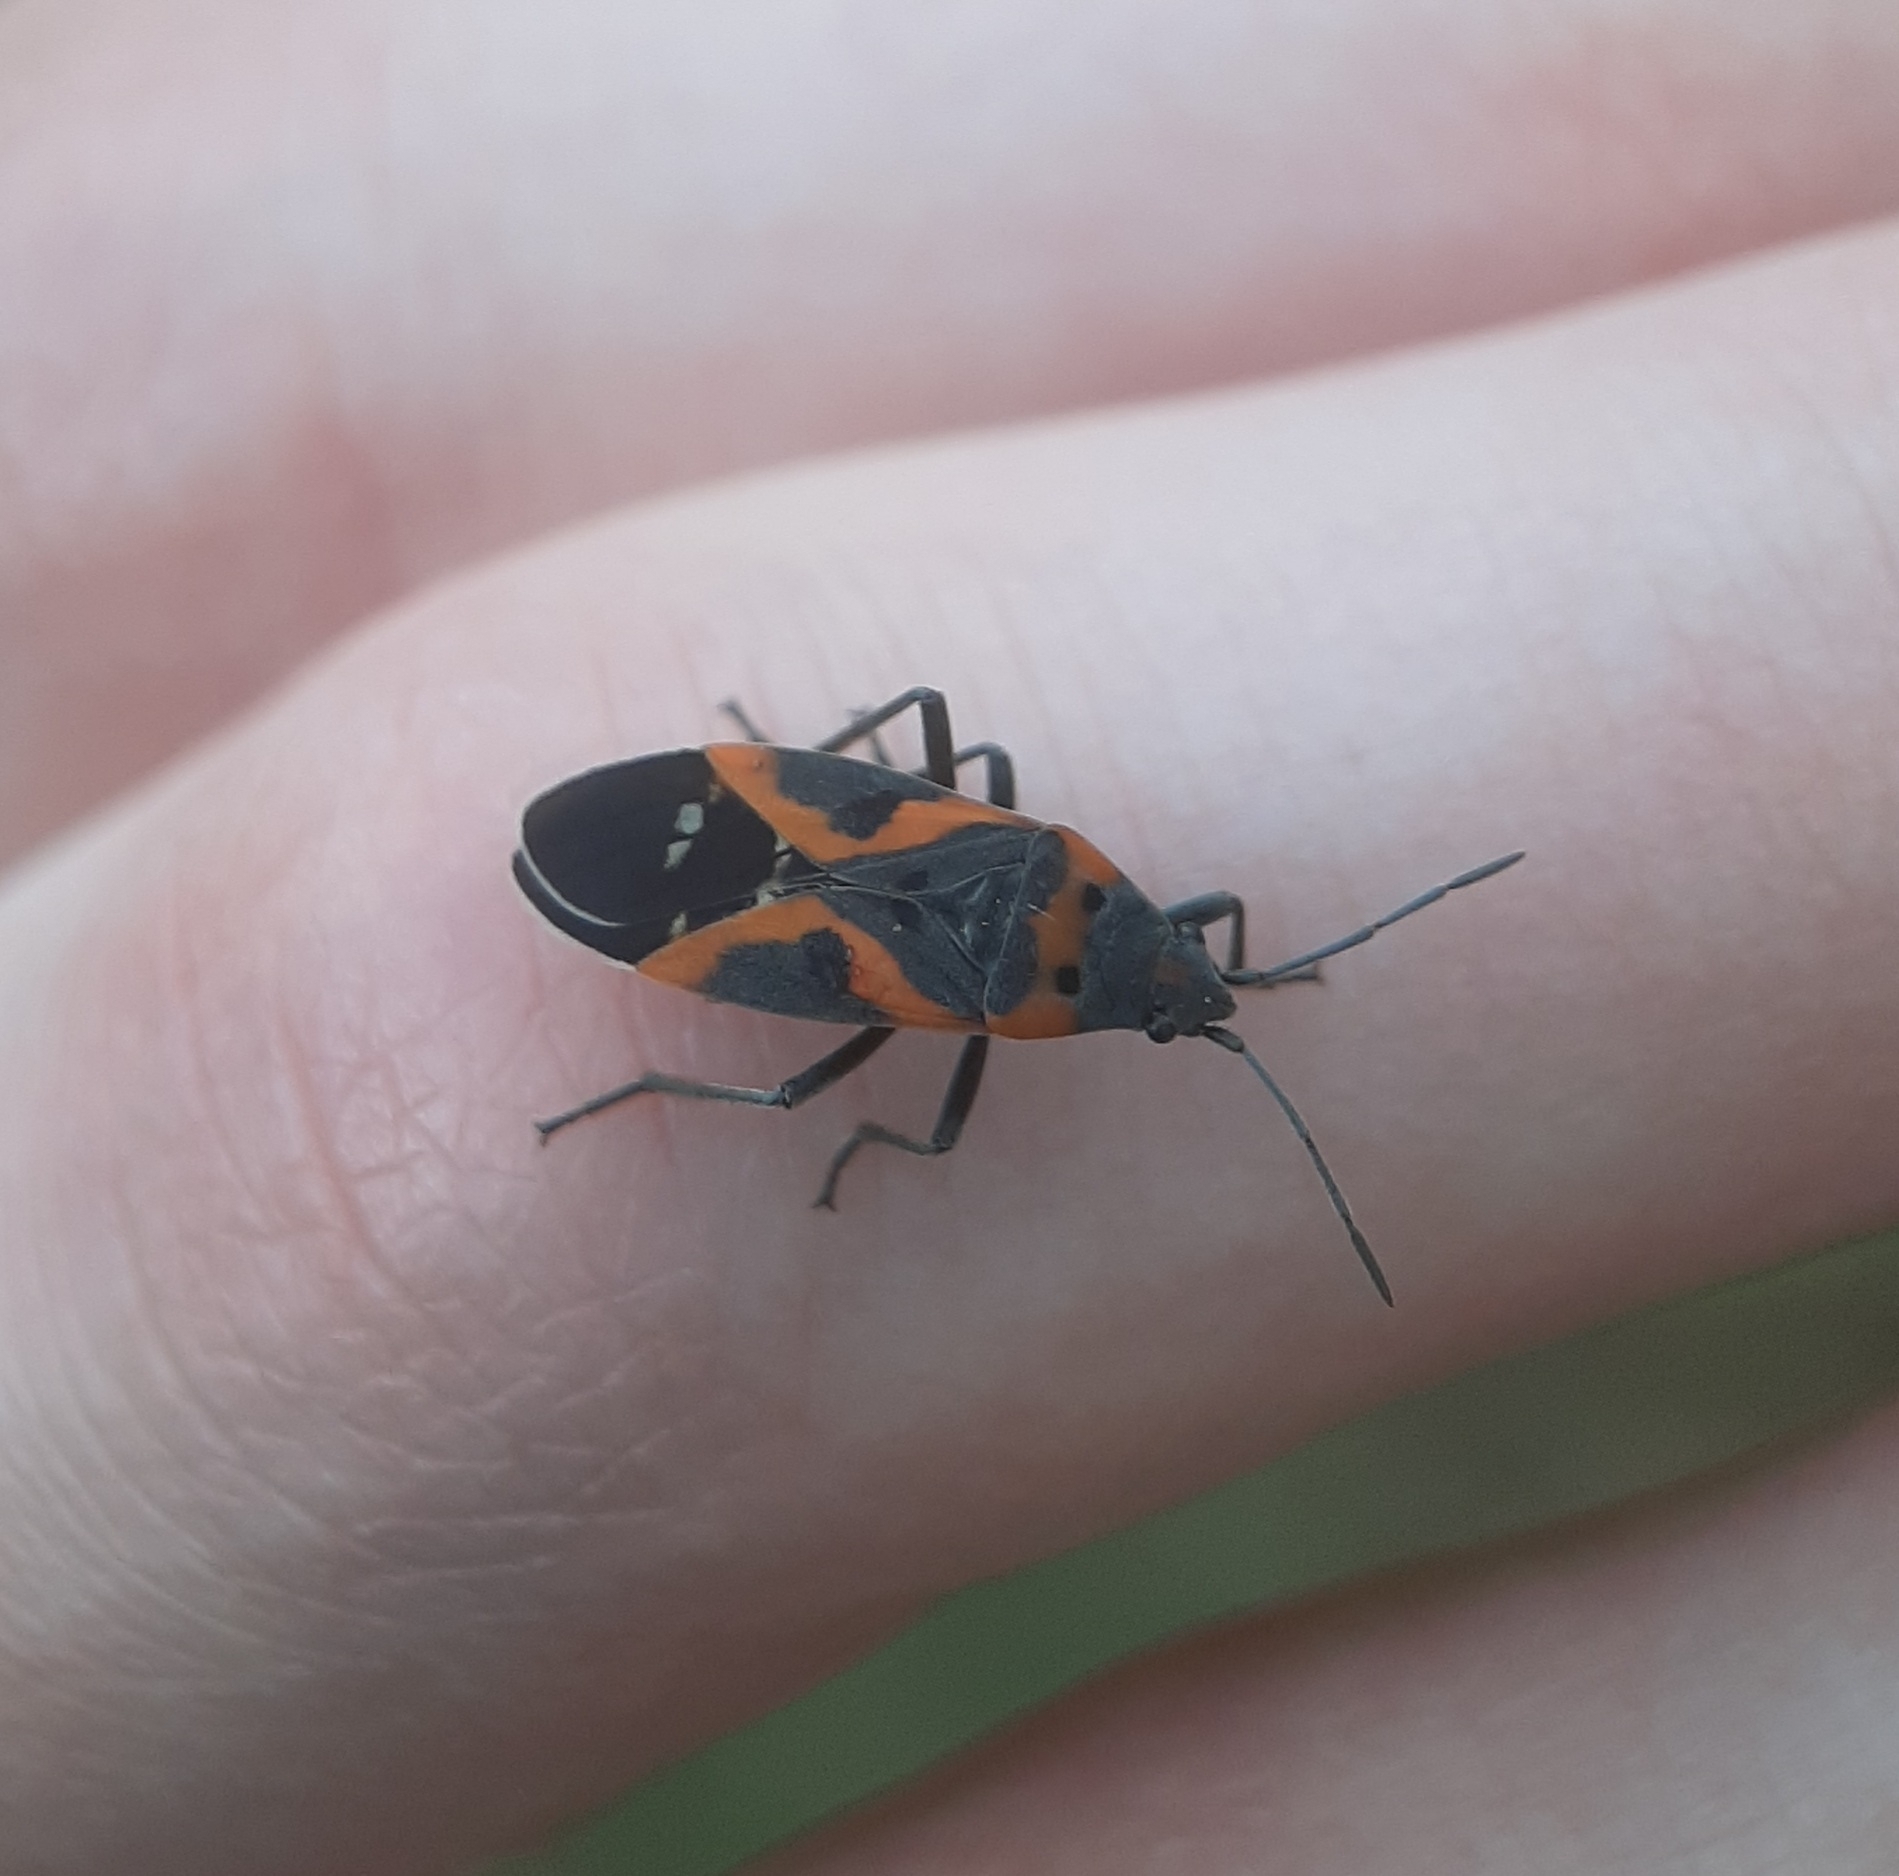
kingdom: Animalia
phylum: Arthropoda
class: Insecta
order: Hemiptera
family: Lygaeidae
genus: Lygaeus
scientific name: Lygaeus kalmii
